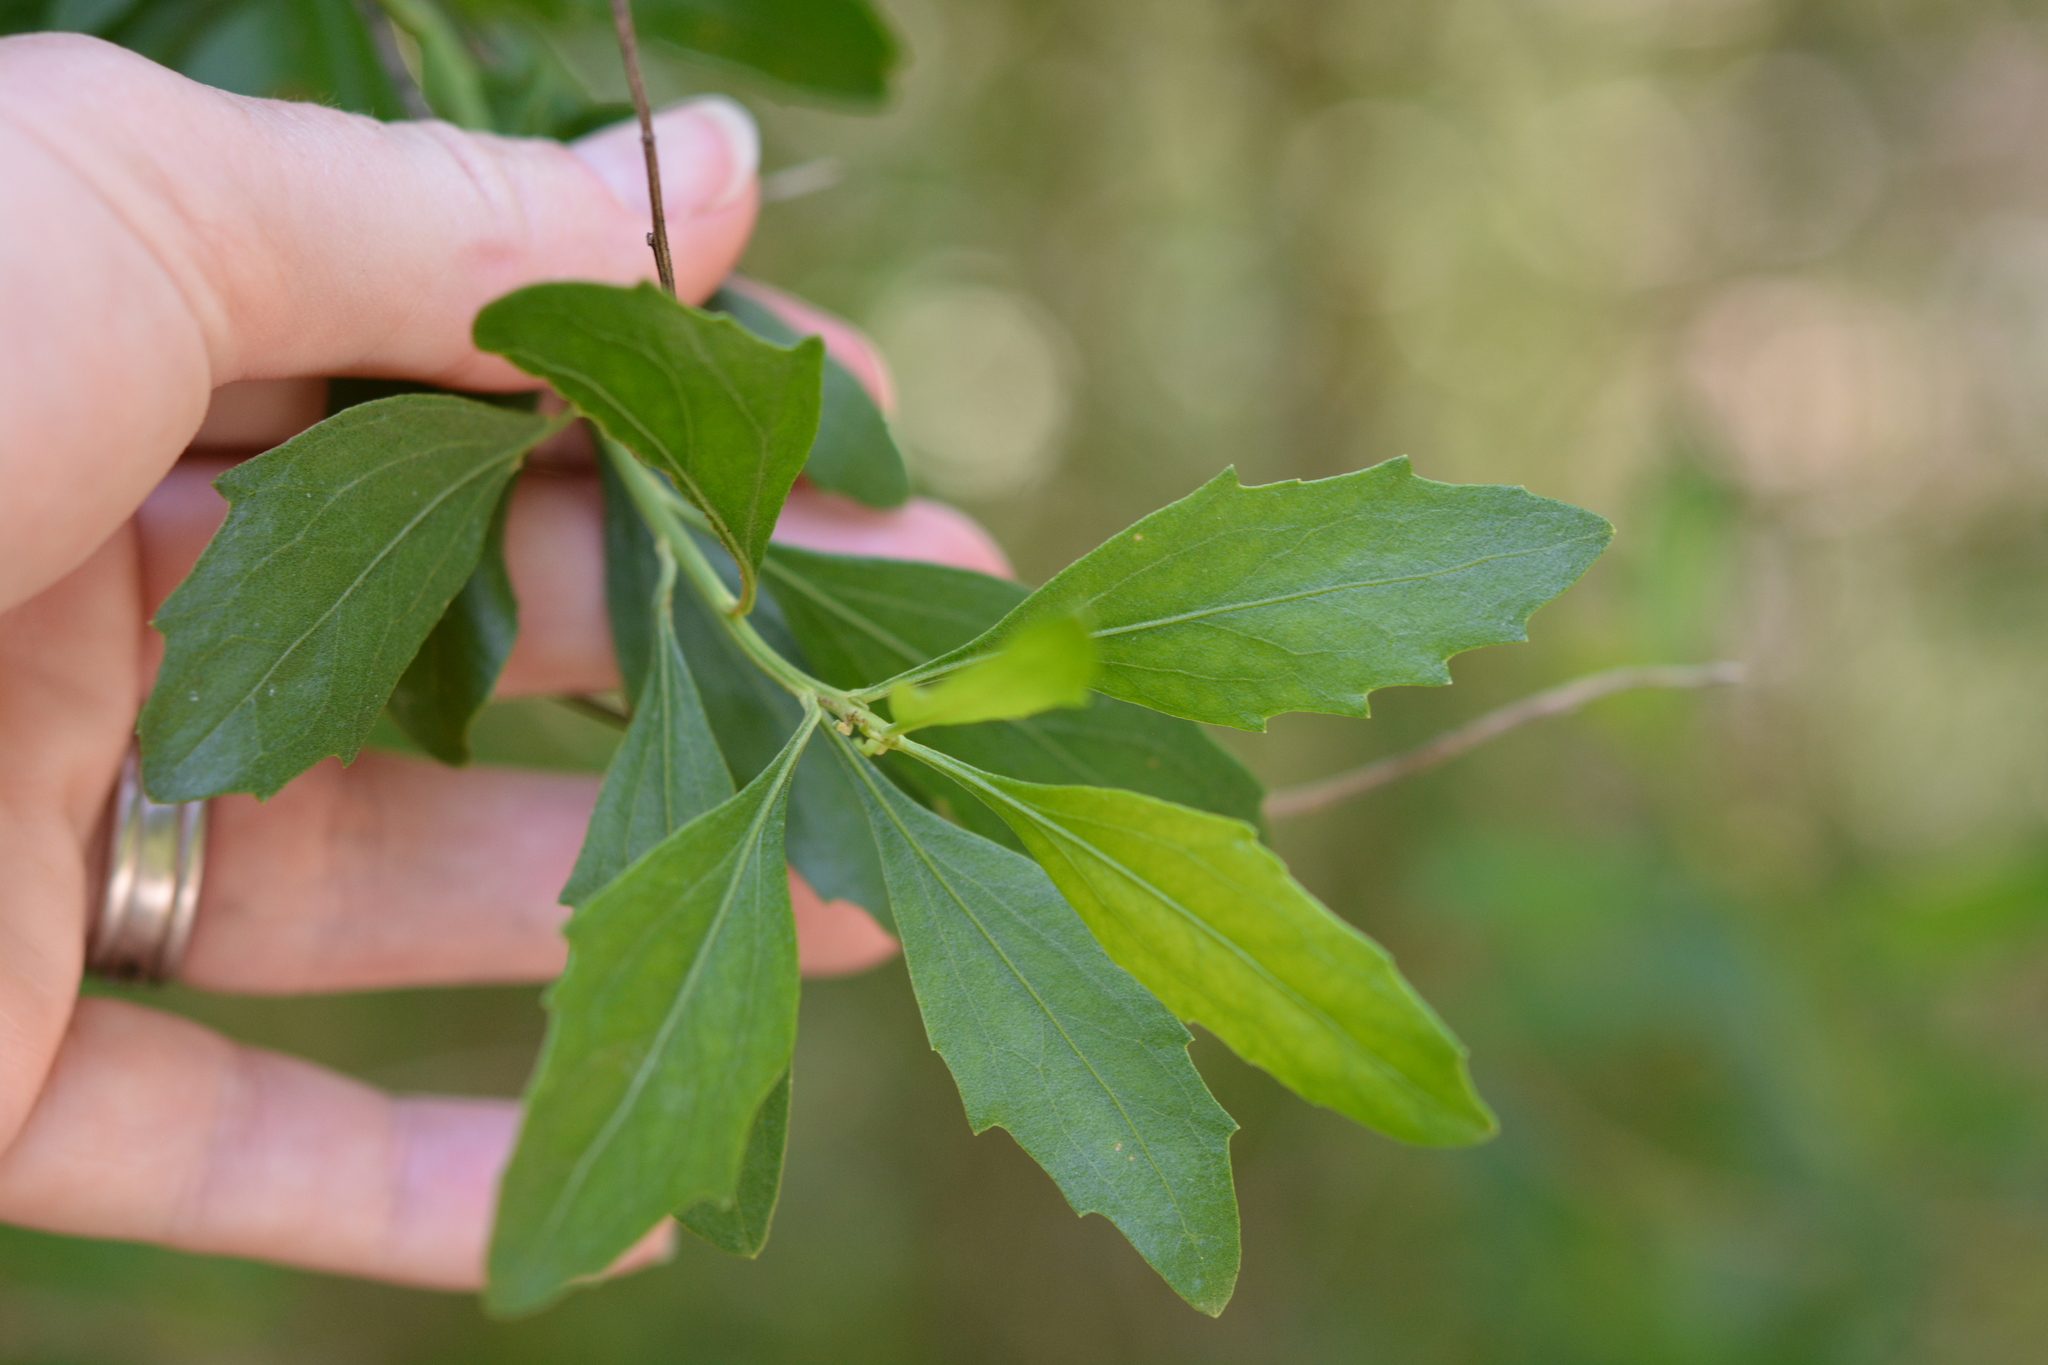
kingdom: Plantae
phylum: Tracheophyta
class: Magnoliopsida
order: Asterales
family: Asteraceae
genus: Baccharis
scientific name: Baccharis halimifolia
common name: Eastern baccharis
